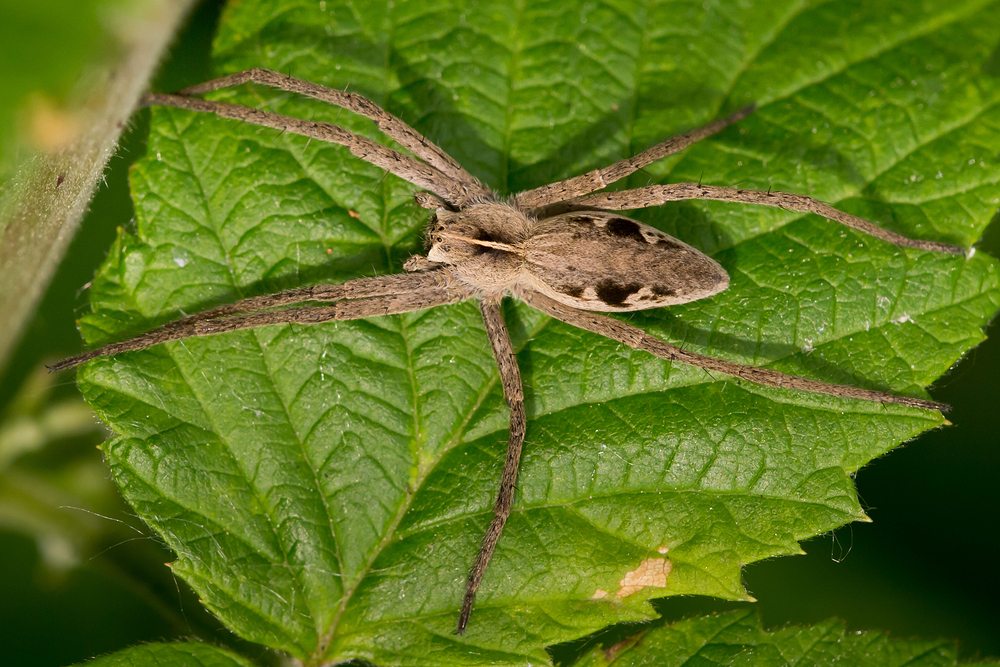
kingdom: Animalia
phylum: Arthropoda
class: Arachnida
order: Araneae
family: Pisauridae
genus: Pisaura
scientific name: Pisaura mirabilis
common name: Tent spider
